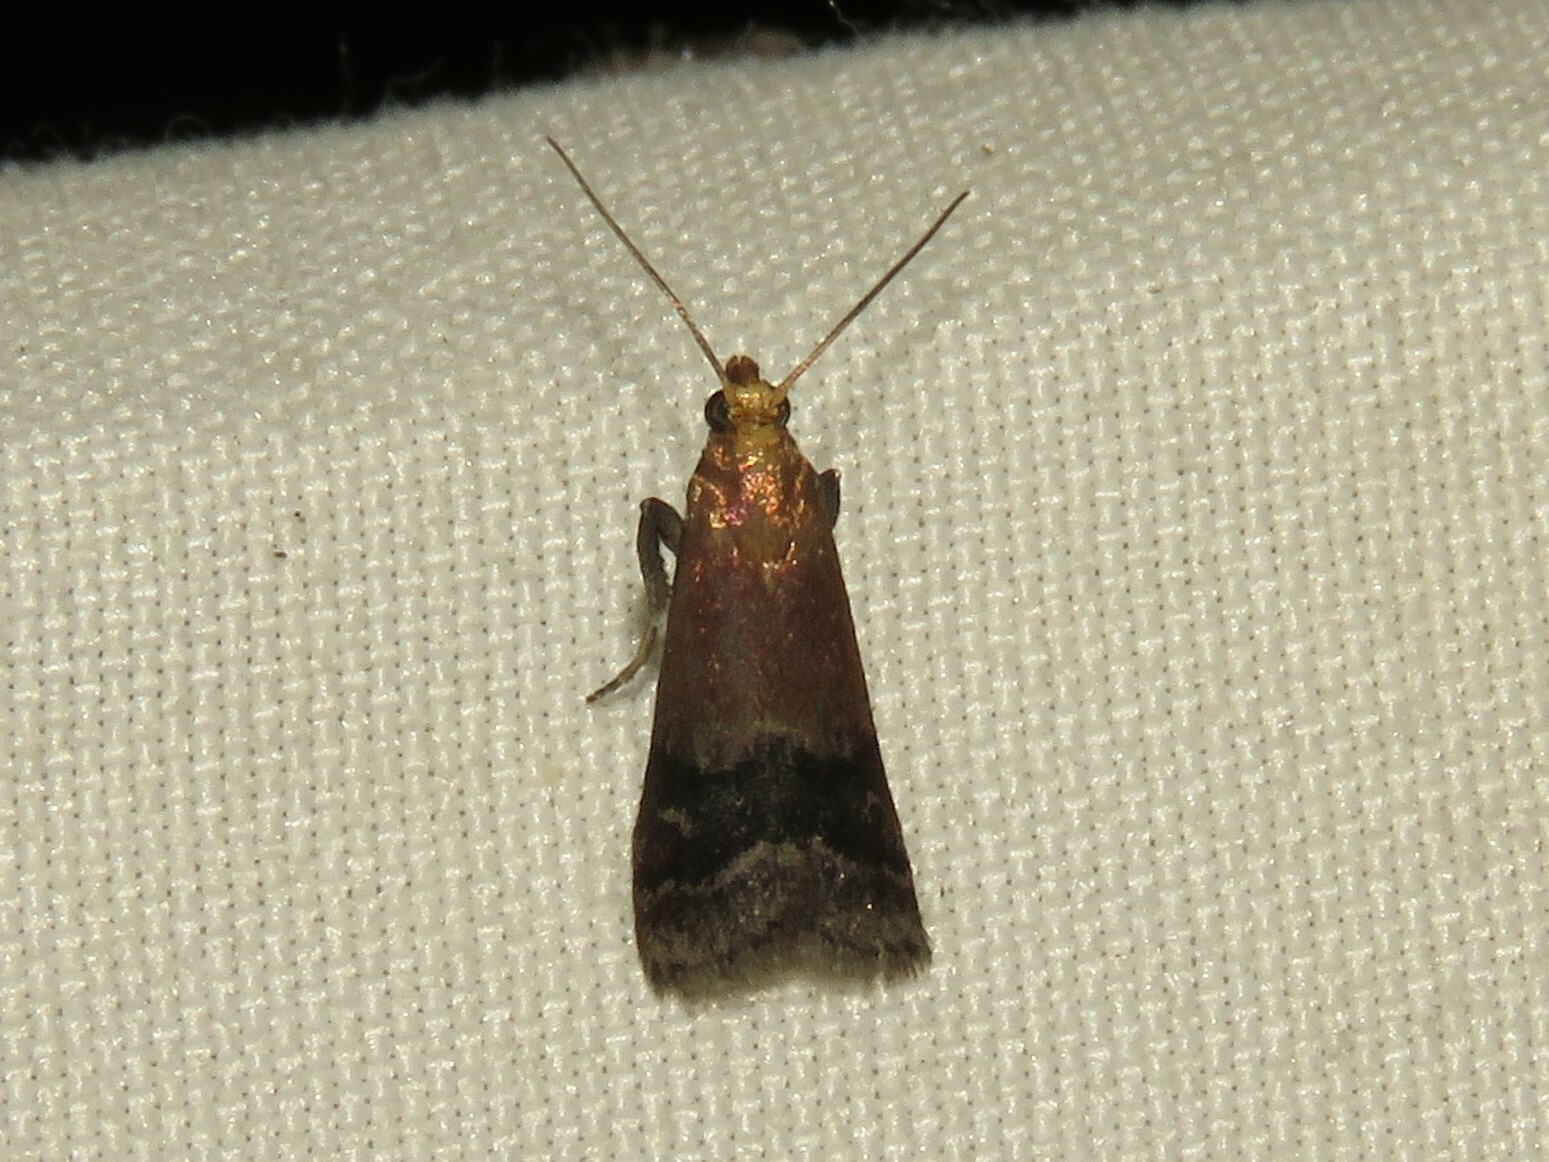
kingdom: Animalia
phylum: Arthropoda
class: Insecta
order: Lepidoptera
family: Pyralidae
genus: Eulogia
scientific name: Eulogia ochrifrontella
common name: Broad-banded eulogia moth
